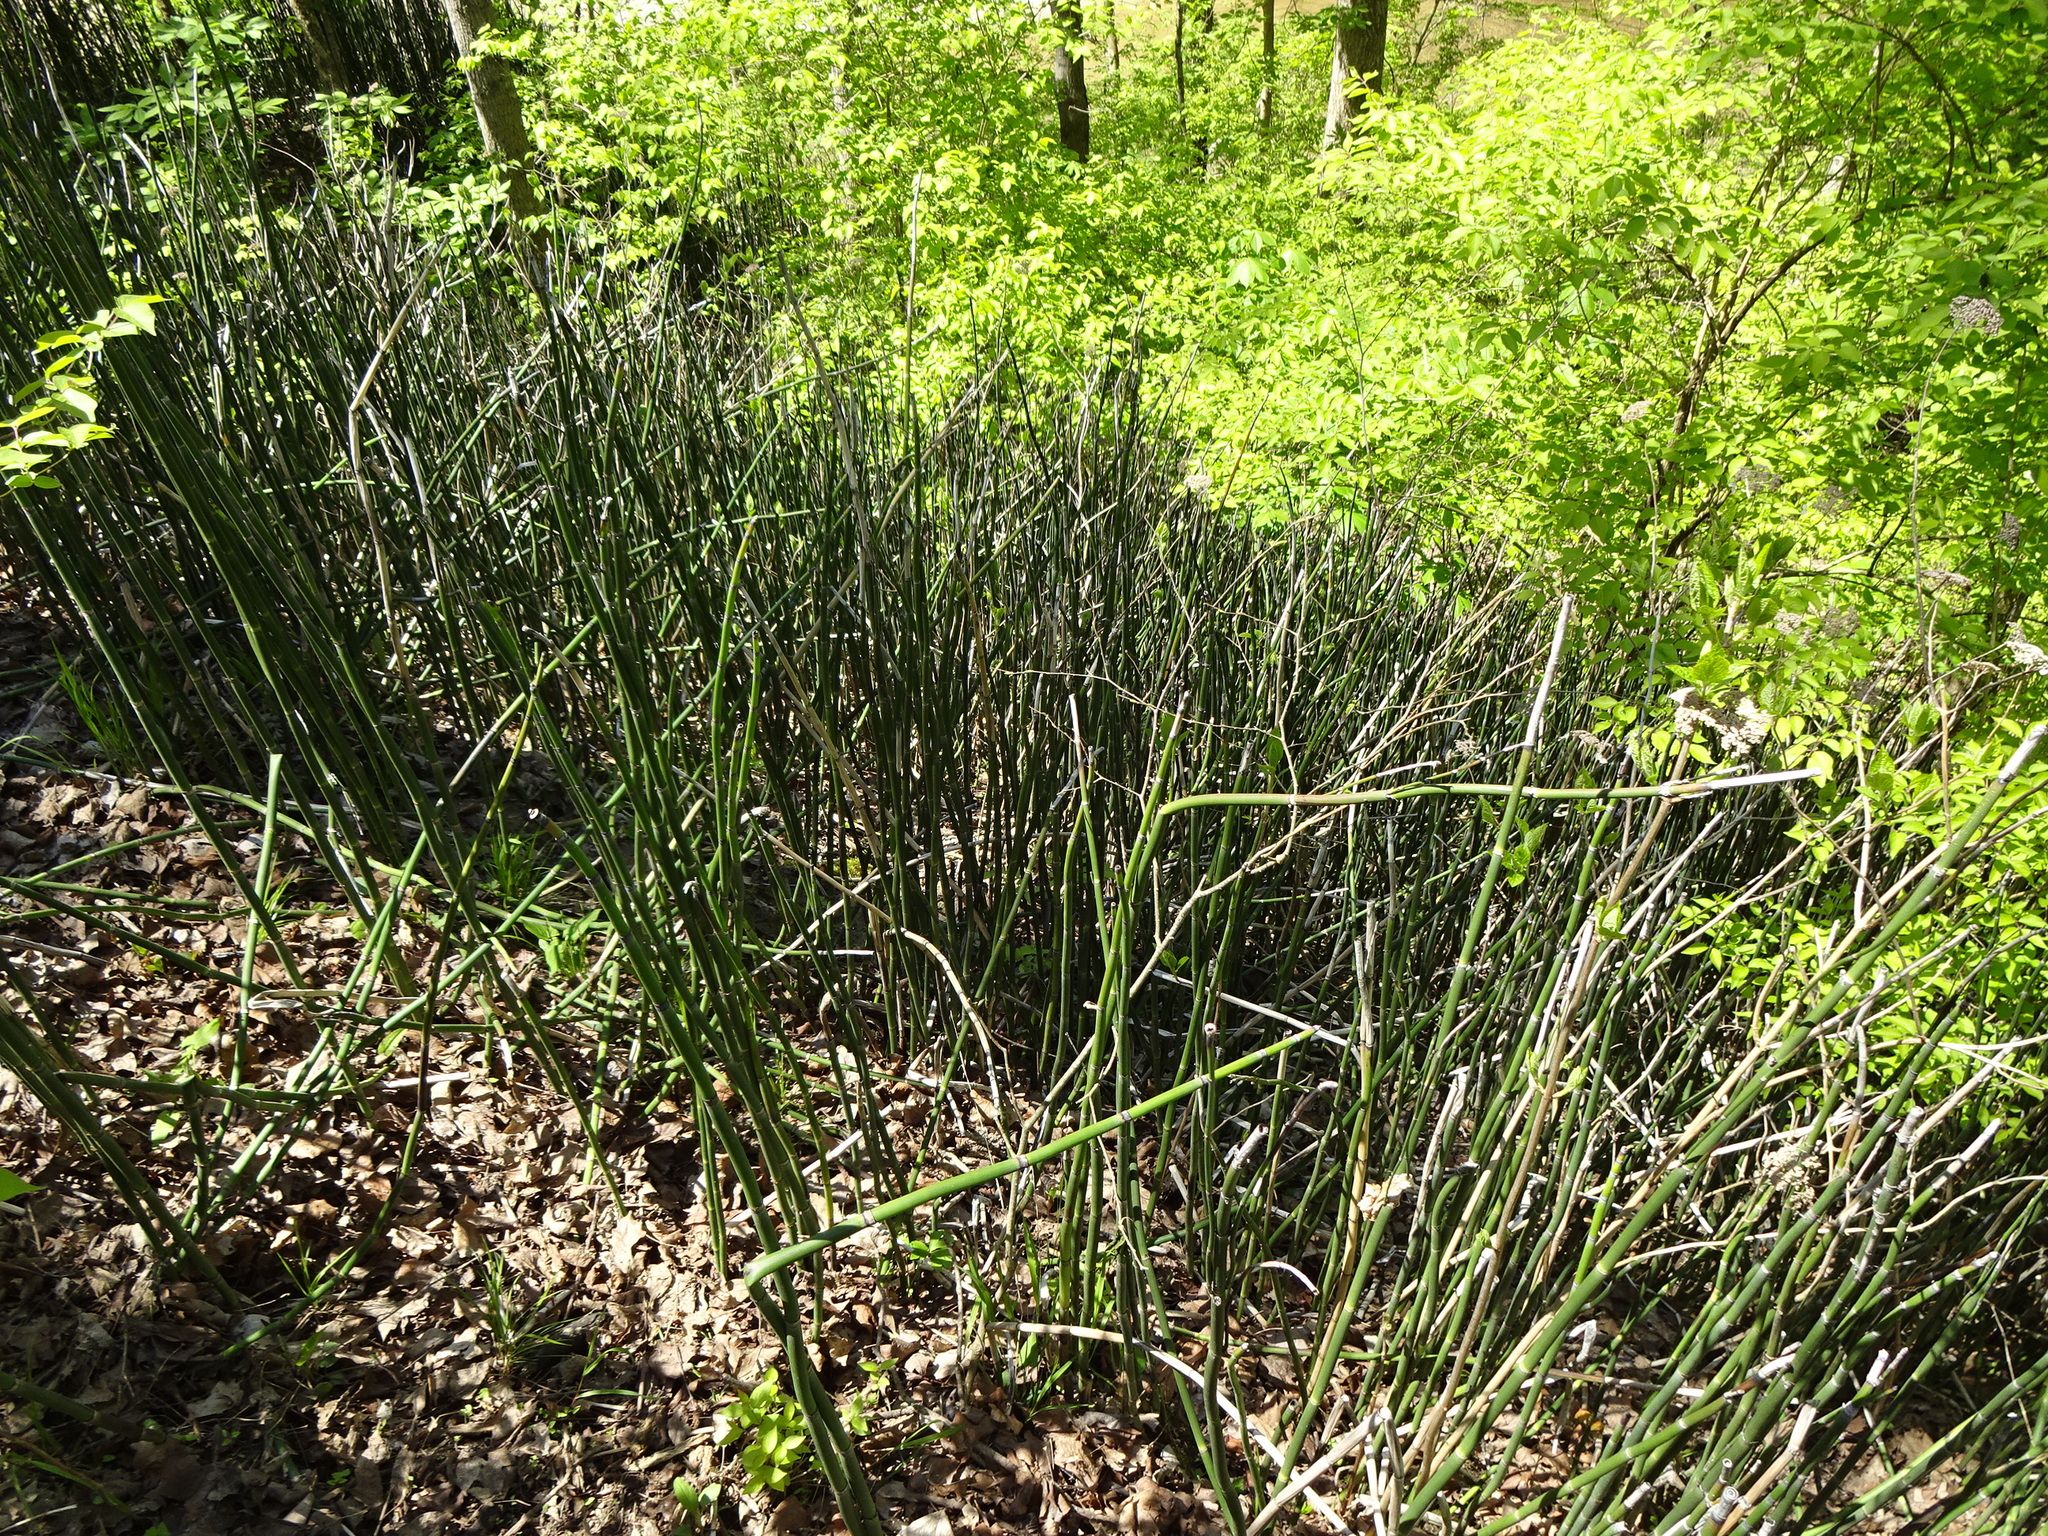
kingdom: Plantae
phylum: Tracheophyta
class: Polypodiopsida
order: Equisetales
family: Equisetaceae
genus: Equisetum
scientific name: Equisetum praealtum
